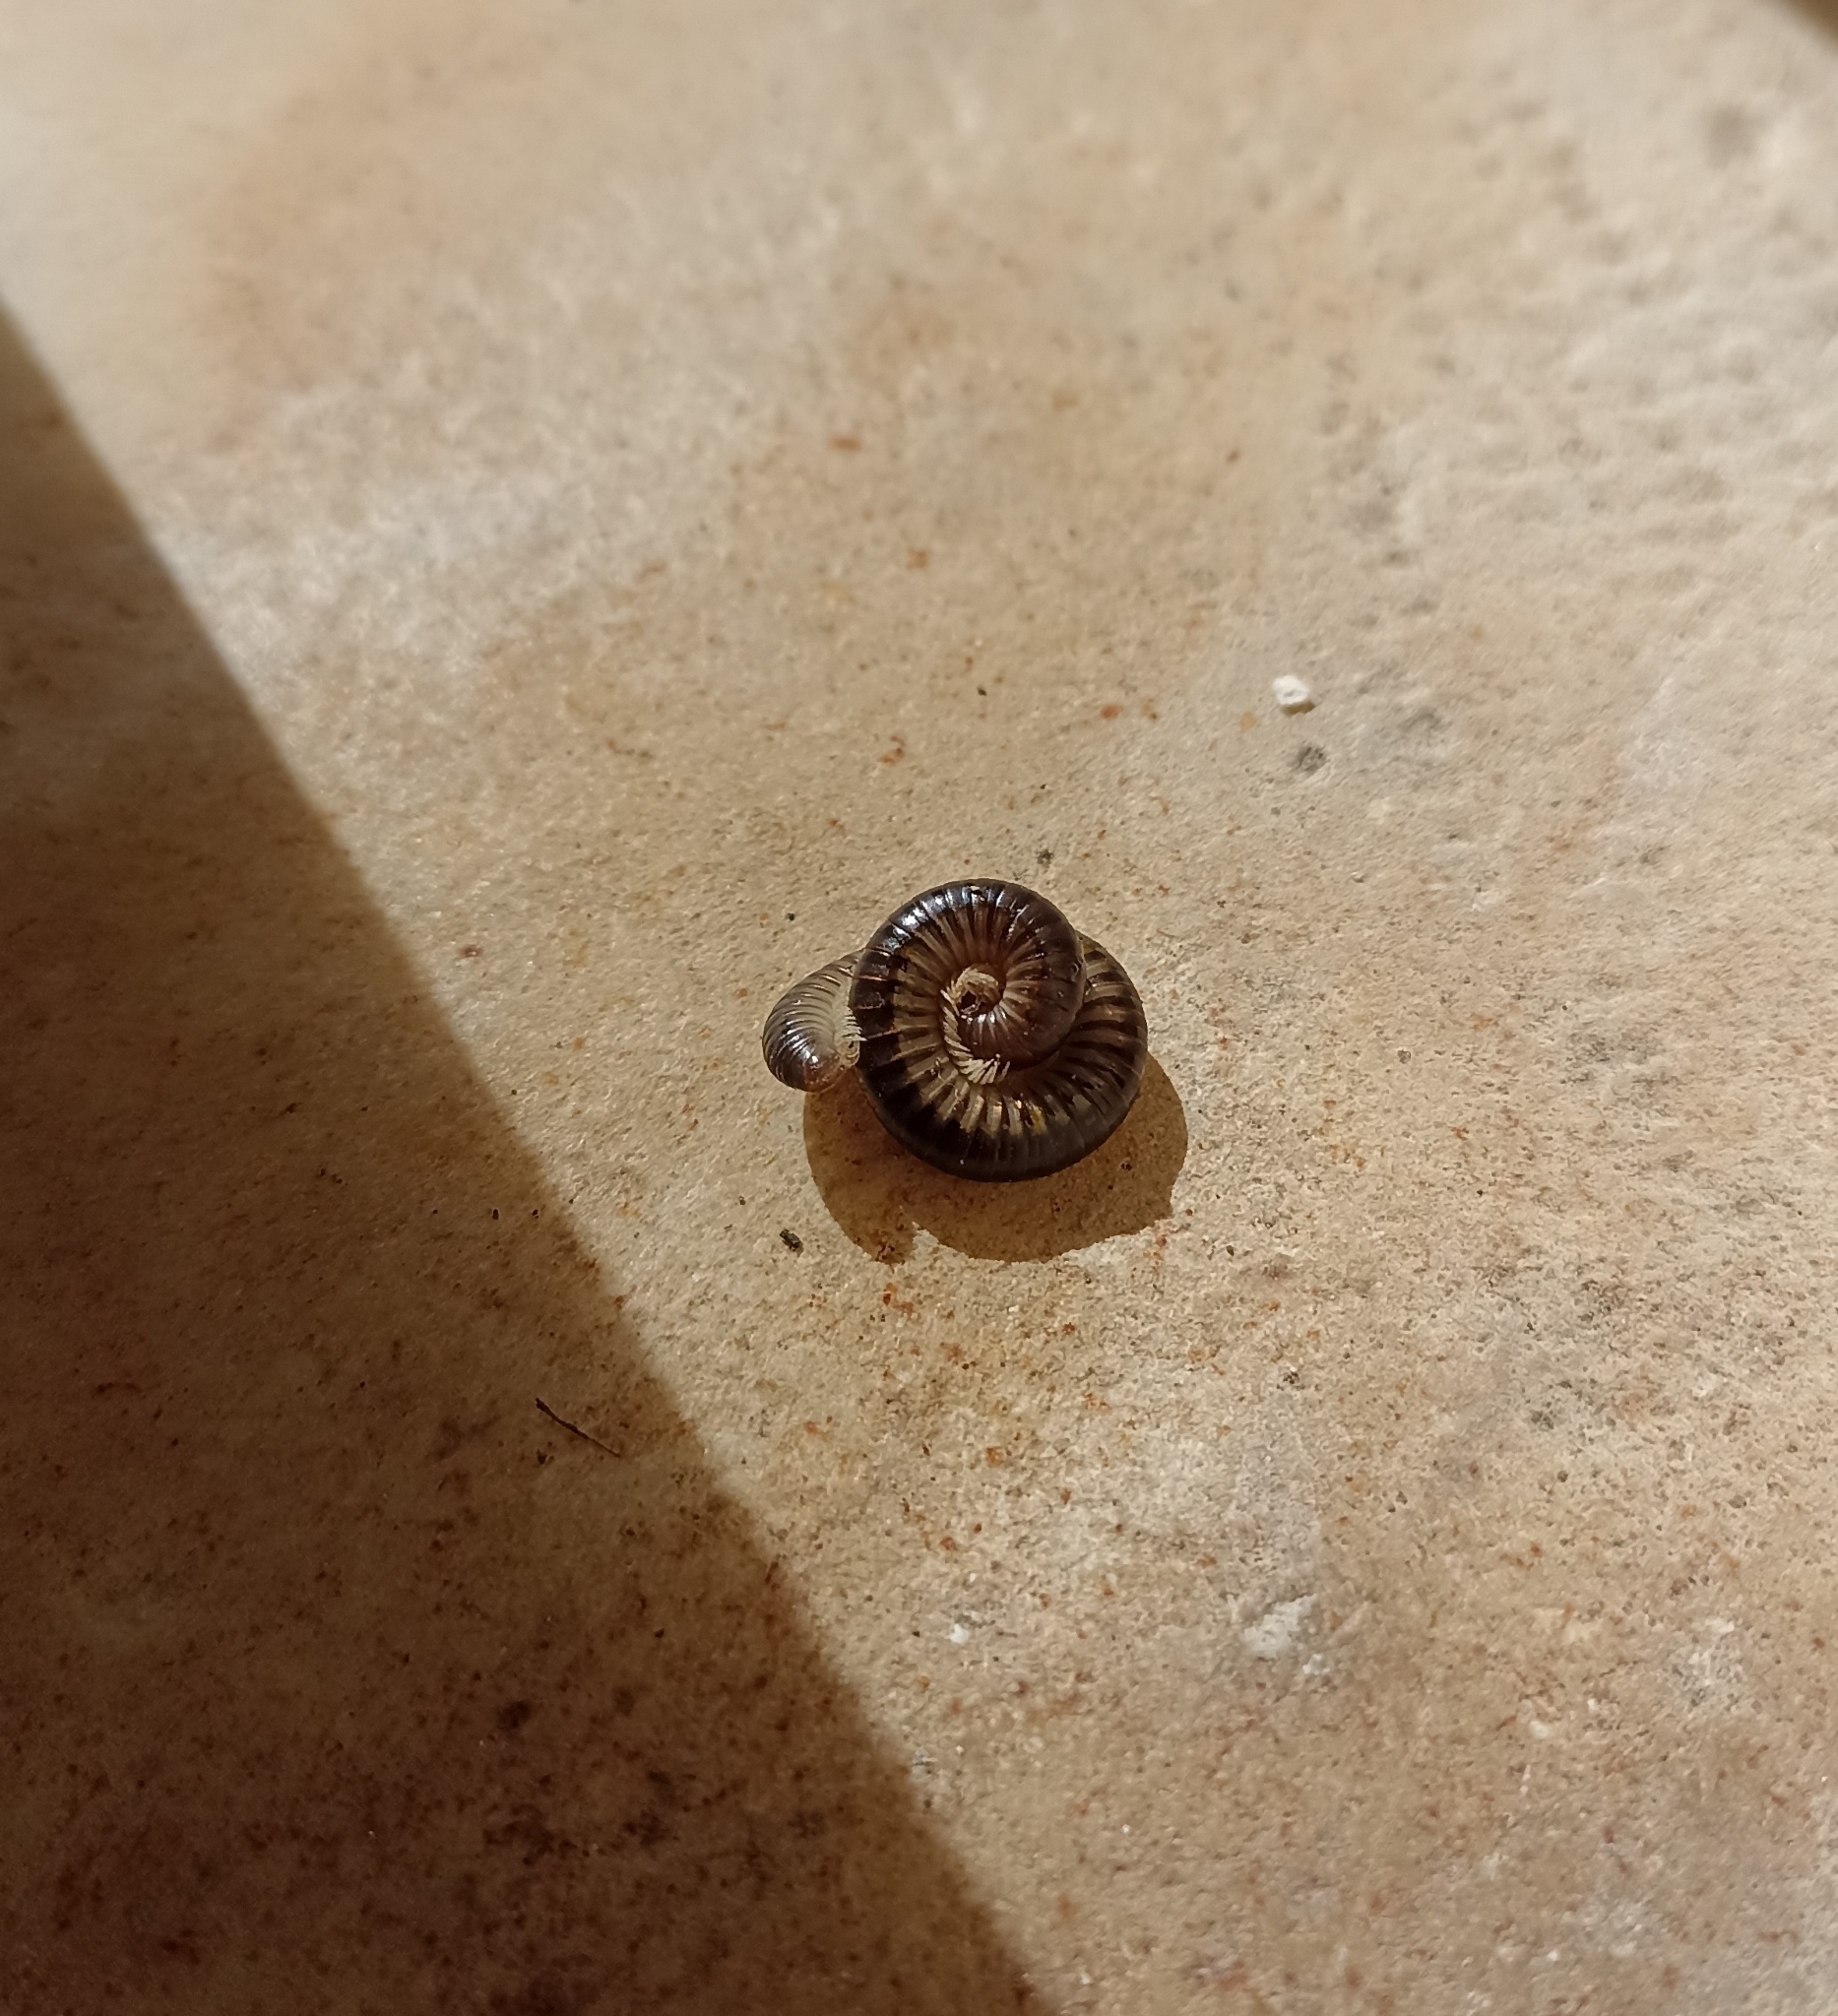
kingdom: Animalia
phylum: Arthropoda
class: Diplopoda
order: Julida
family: Julidae
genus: Pachyiulus
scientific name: Pachyiulus flavipes
